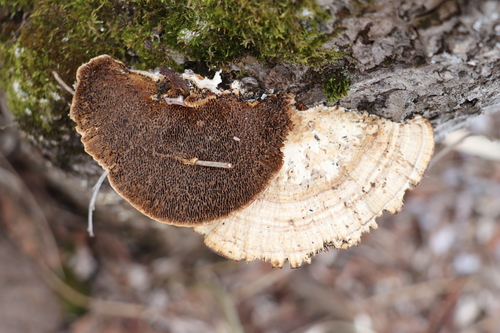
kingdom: Fungi
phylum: Basidiomycota
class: Agaricomycetes
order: Polyporales
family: Polyporaceae
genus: Daedaleopsis
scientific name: Daedaleopsis confragosa
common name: Blushing bracket
